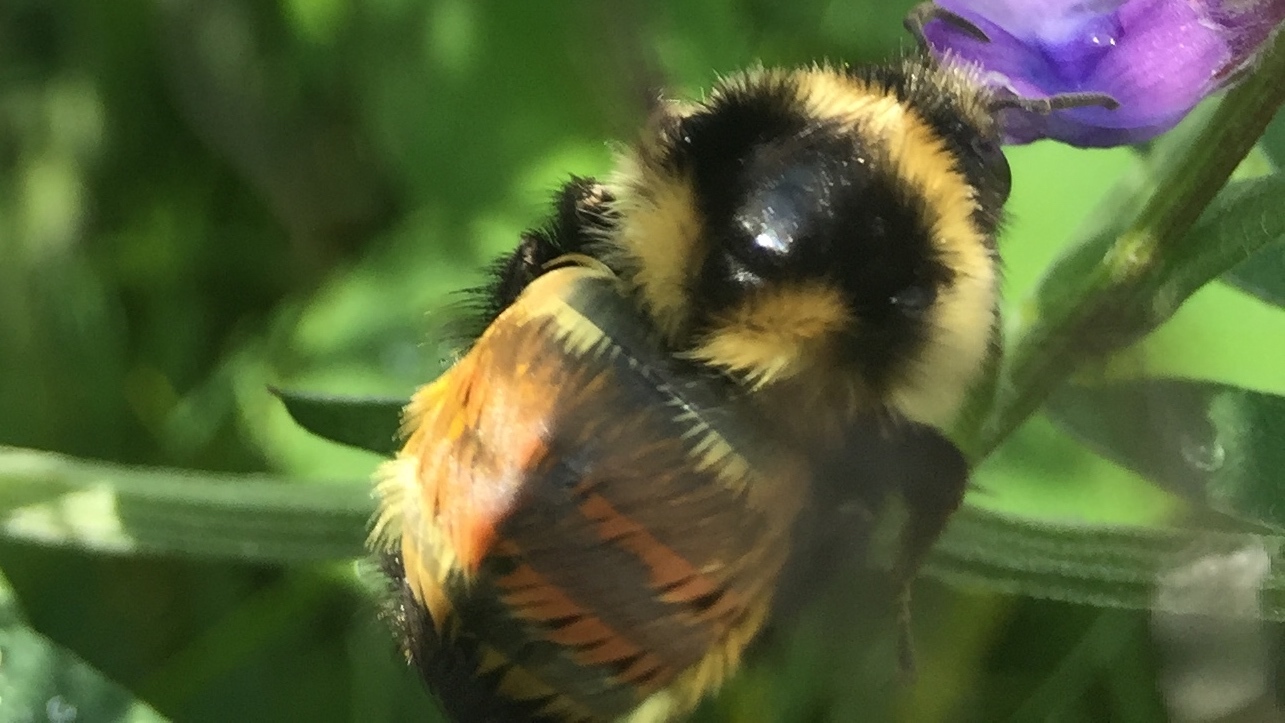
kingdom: Animalia
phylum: Arthropoda
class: Insecta
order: Hymenoptera
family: Apidae
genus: Bombus
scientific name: Bombus ternarius
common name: Tri-colored bumble bee
